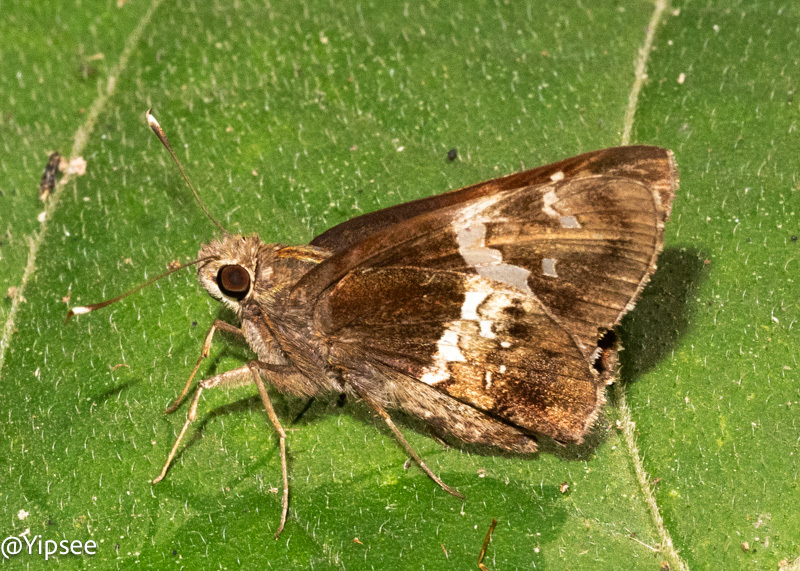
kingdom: Animalia
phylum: Arthropoda
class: Insecta
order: Lepidoptera
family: Hesperiidae
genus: Hyarotis
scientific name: Hyarotis adrastus
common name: Tree flitter
